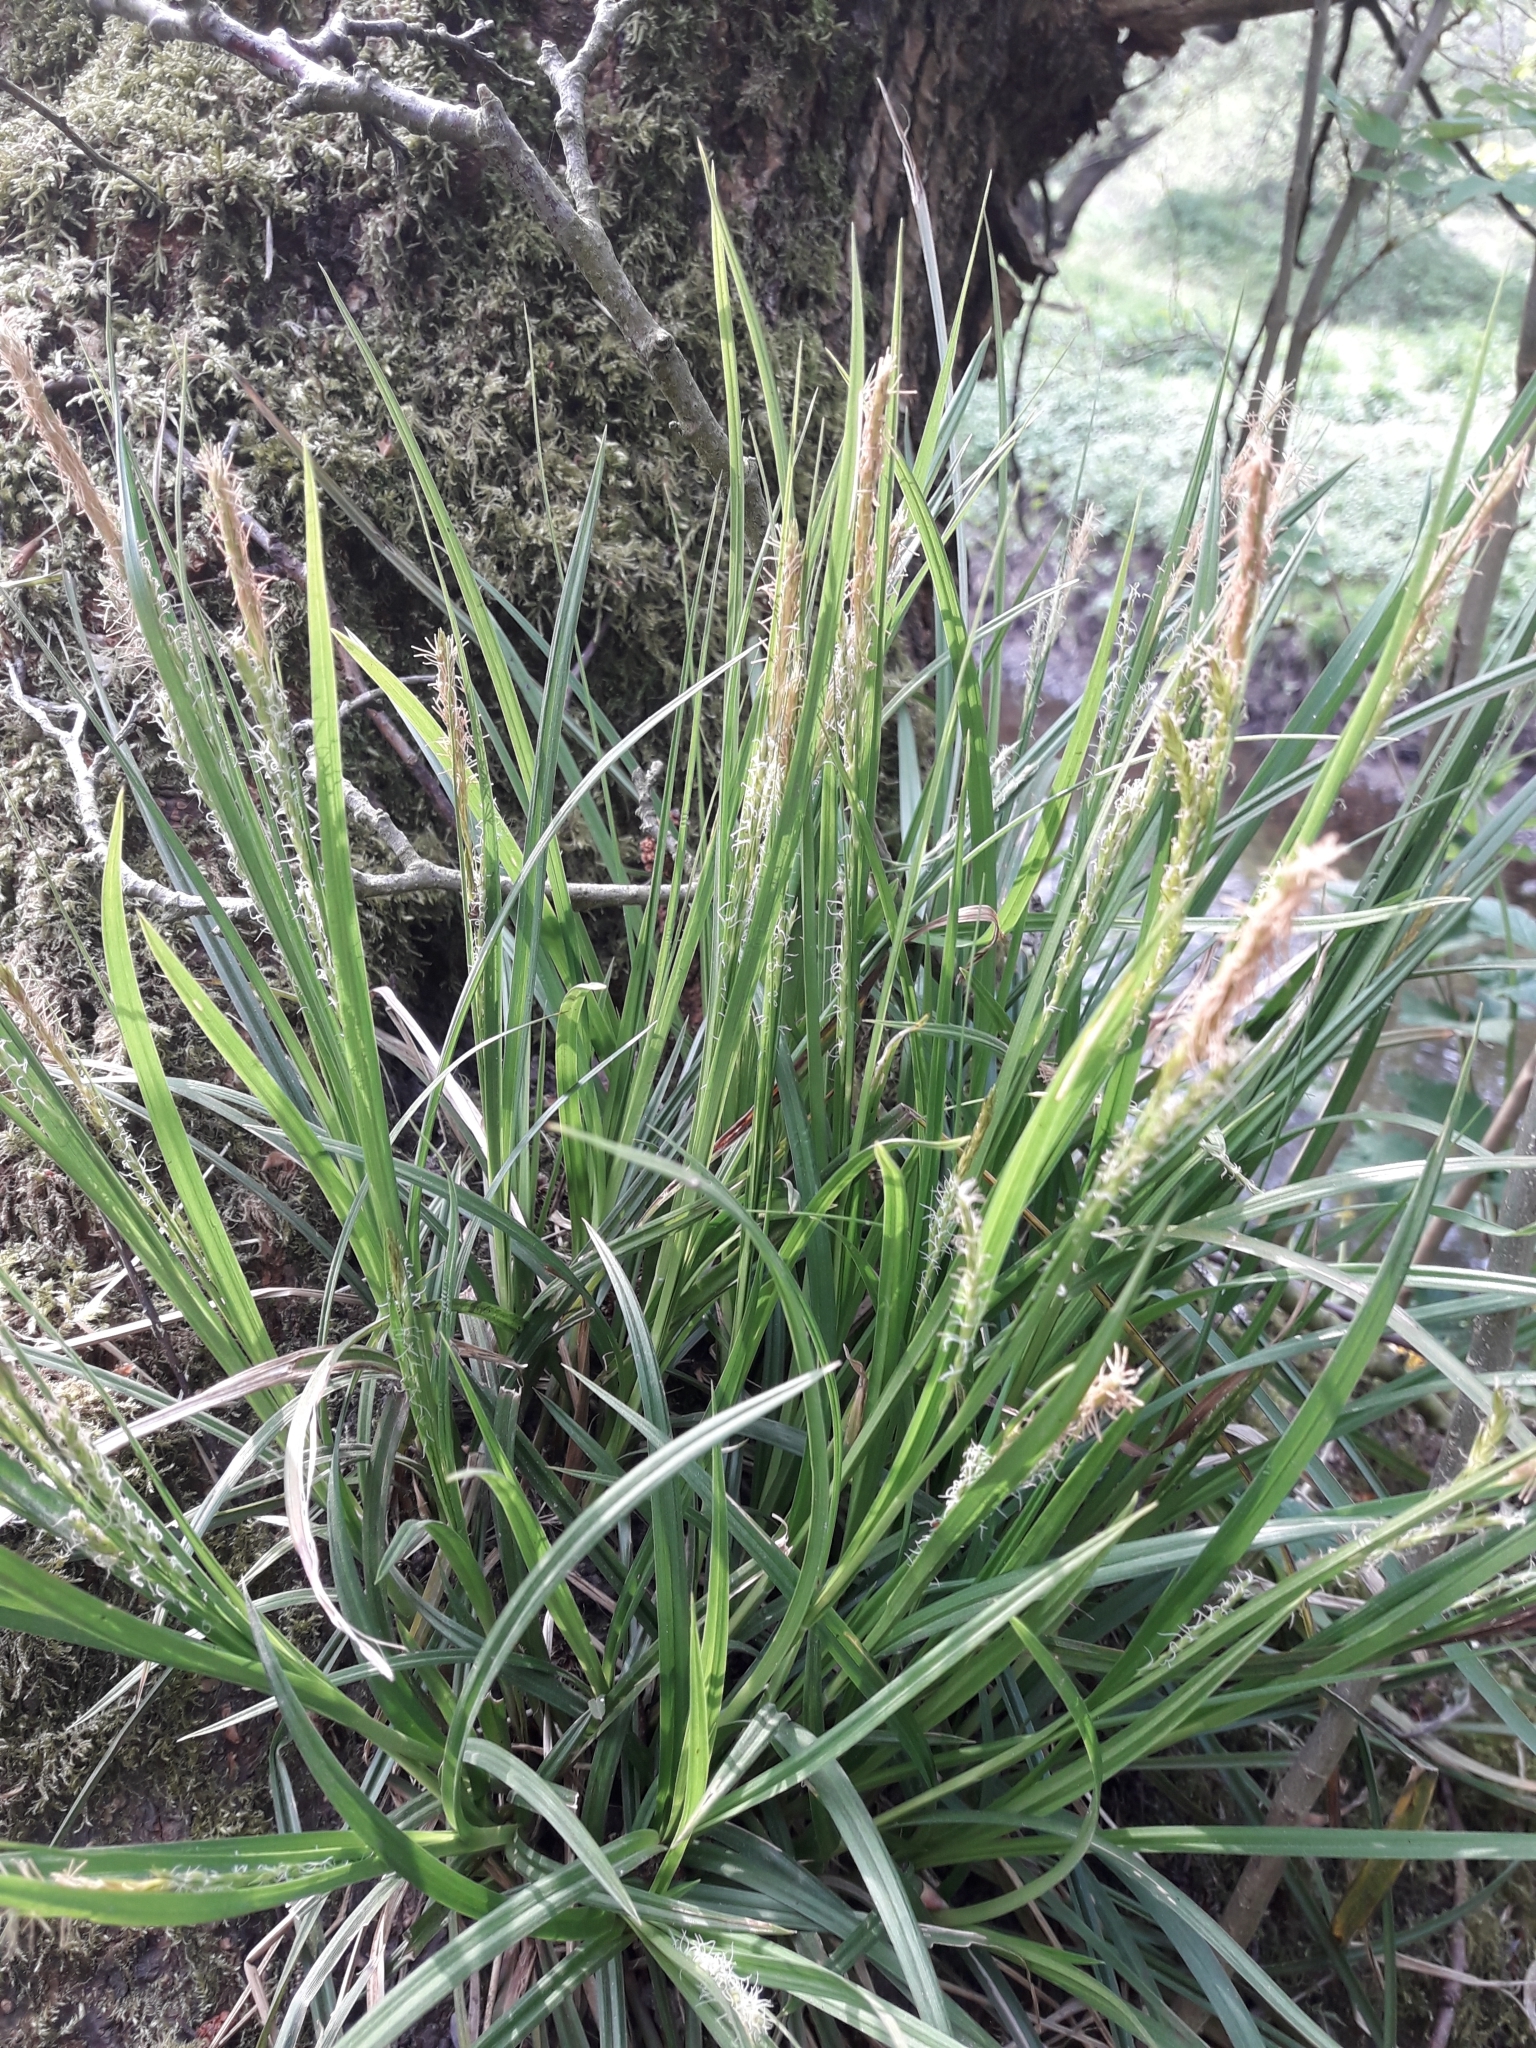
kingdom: Plantae
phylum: Tracheophyta
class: Liliopsida
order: Poales
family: Cyperaceae
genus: Carex
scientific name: Carex sylvatica
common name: Wood-sedge
